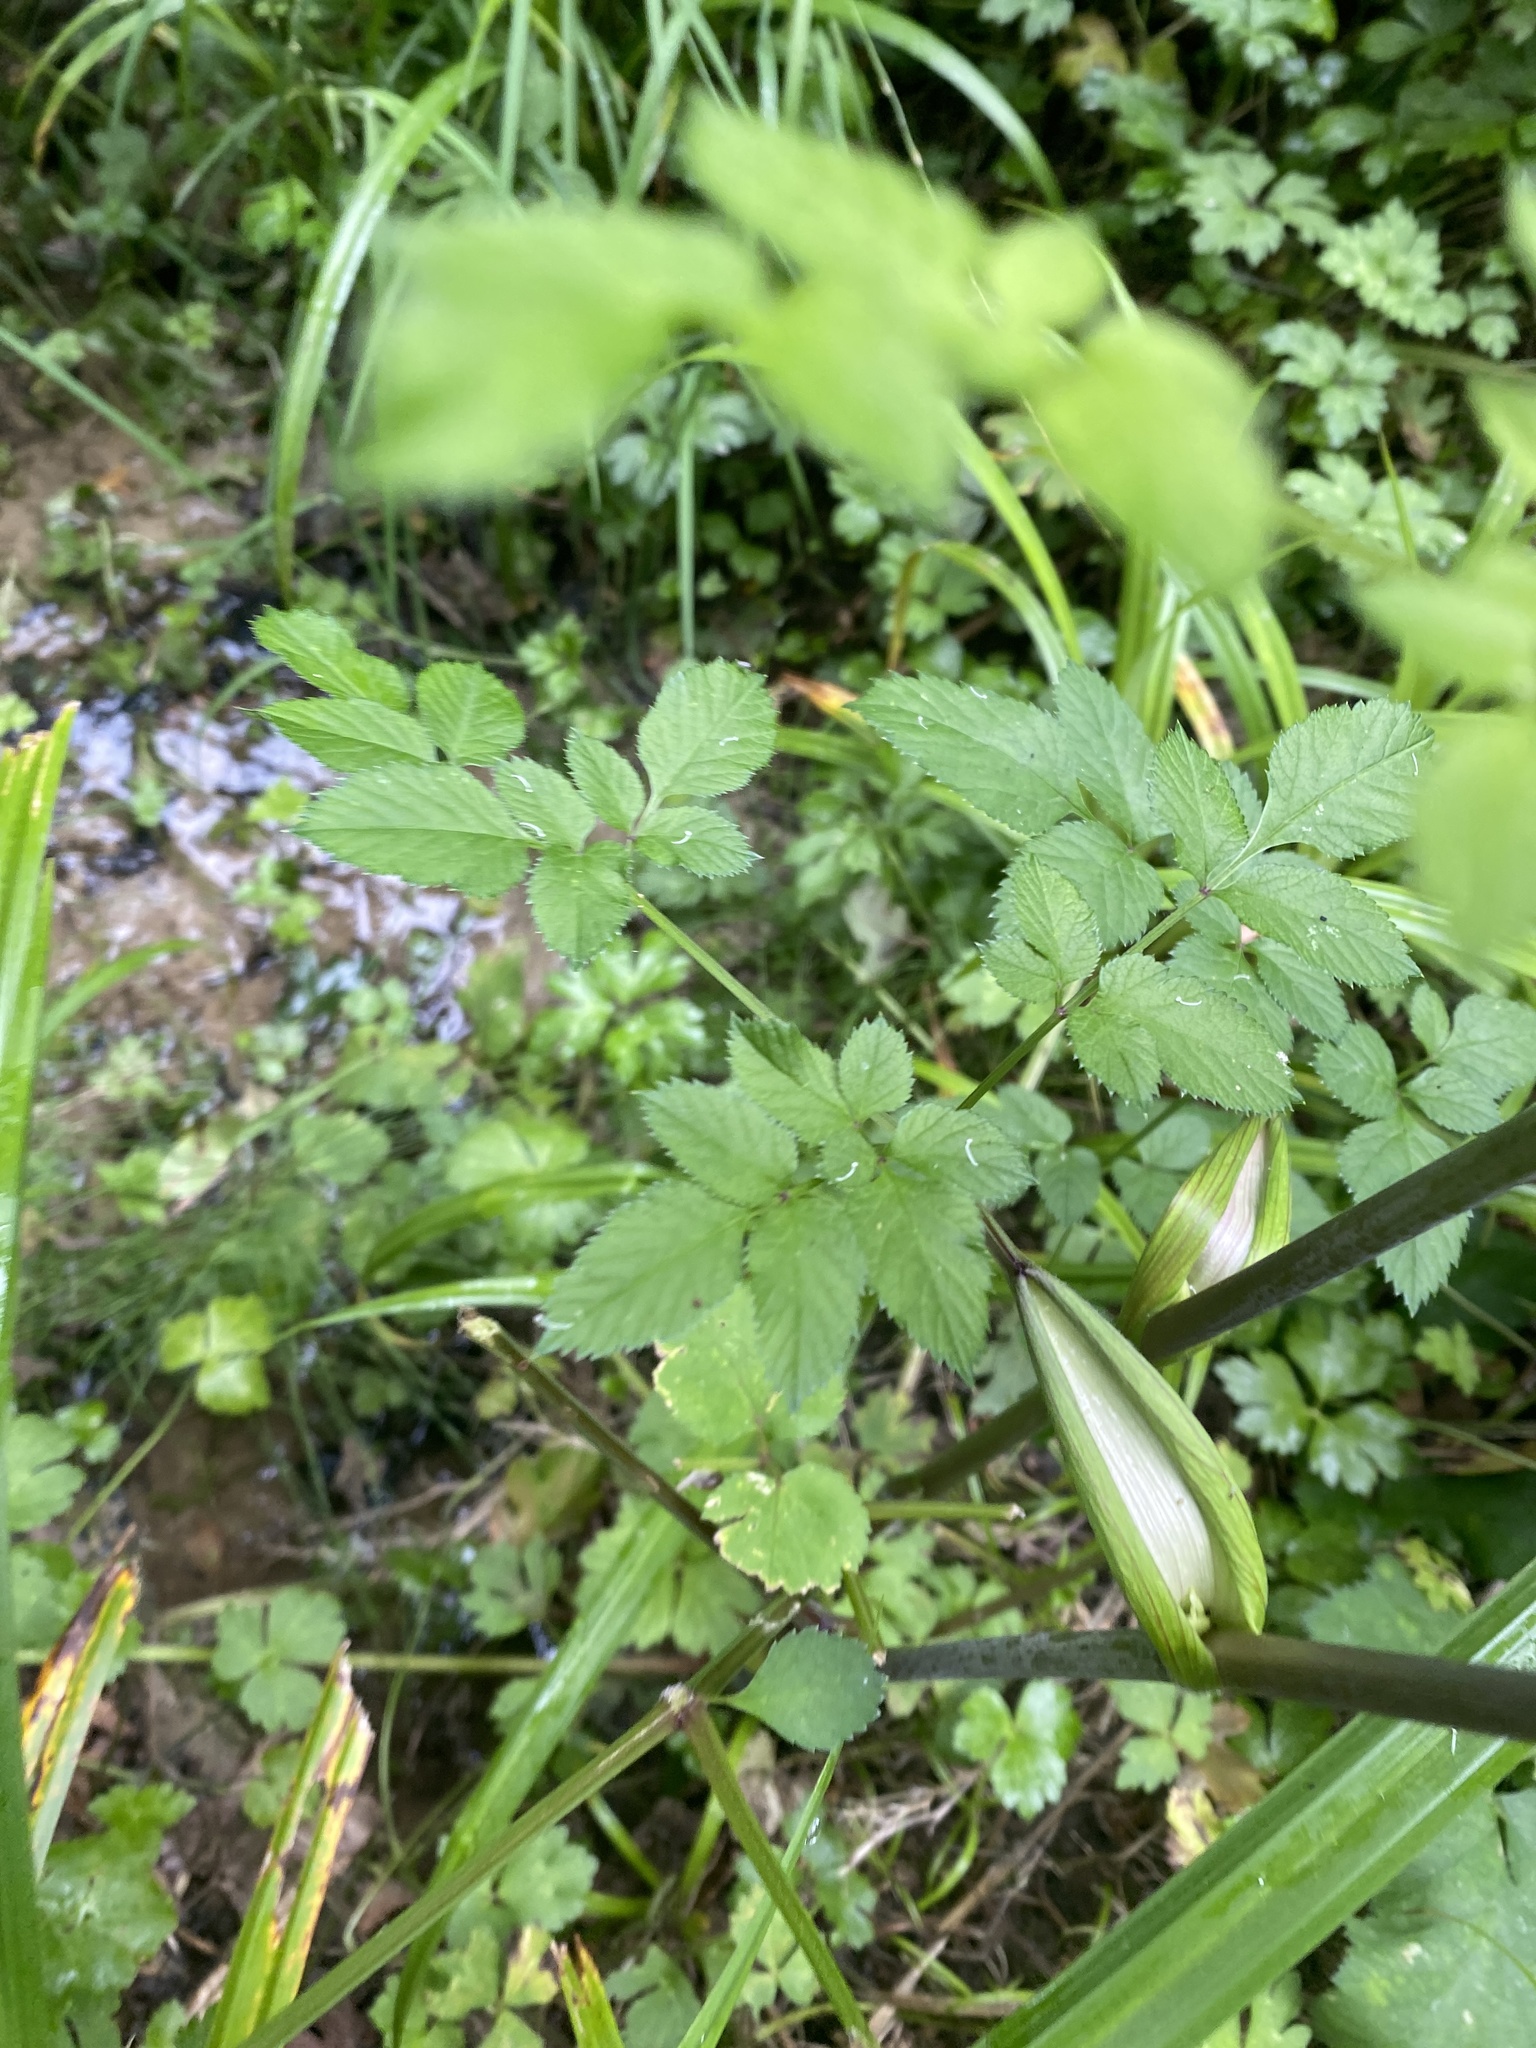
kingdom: Plantae
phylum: Tracheophyta
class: Magnoliopsida
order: Apiales
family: Apiaceae
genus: Angelica
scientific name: Angelica sylvestris
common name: Wild angelica
